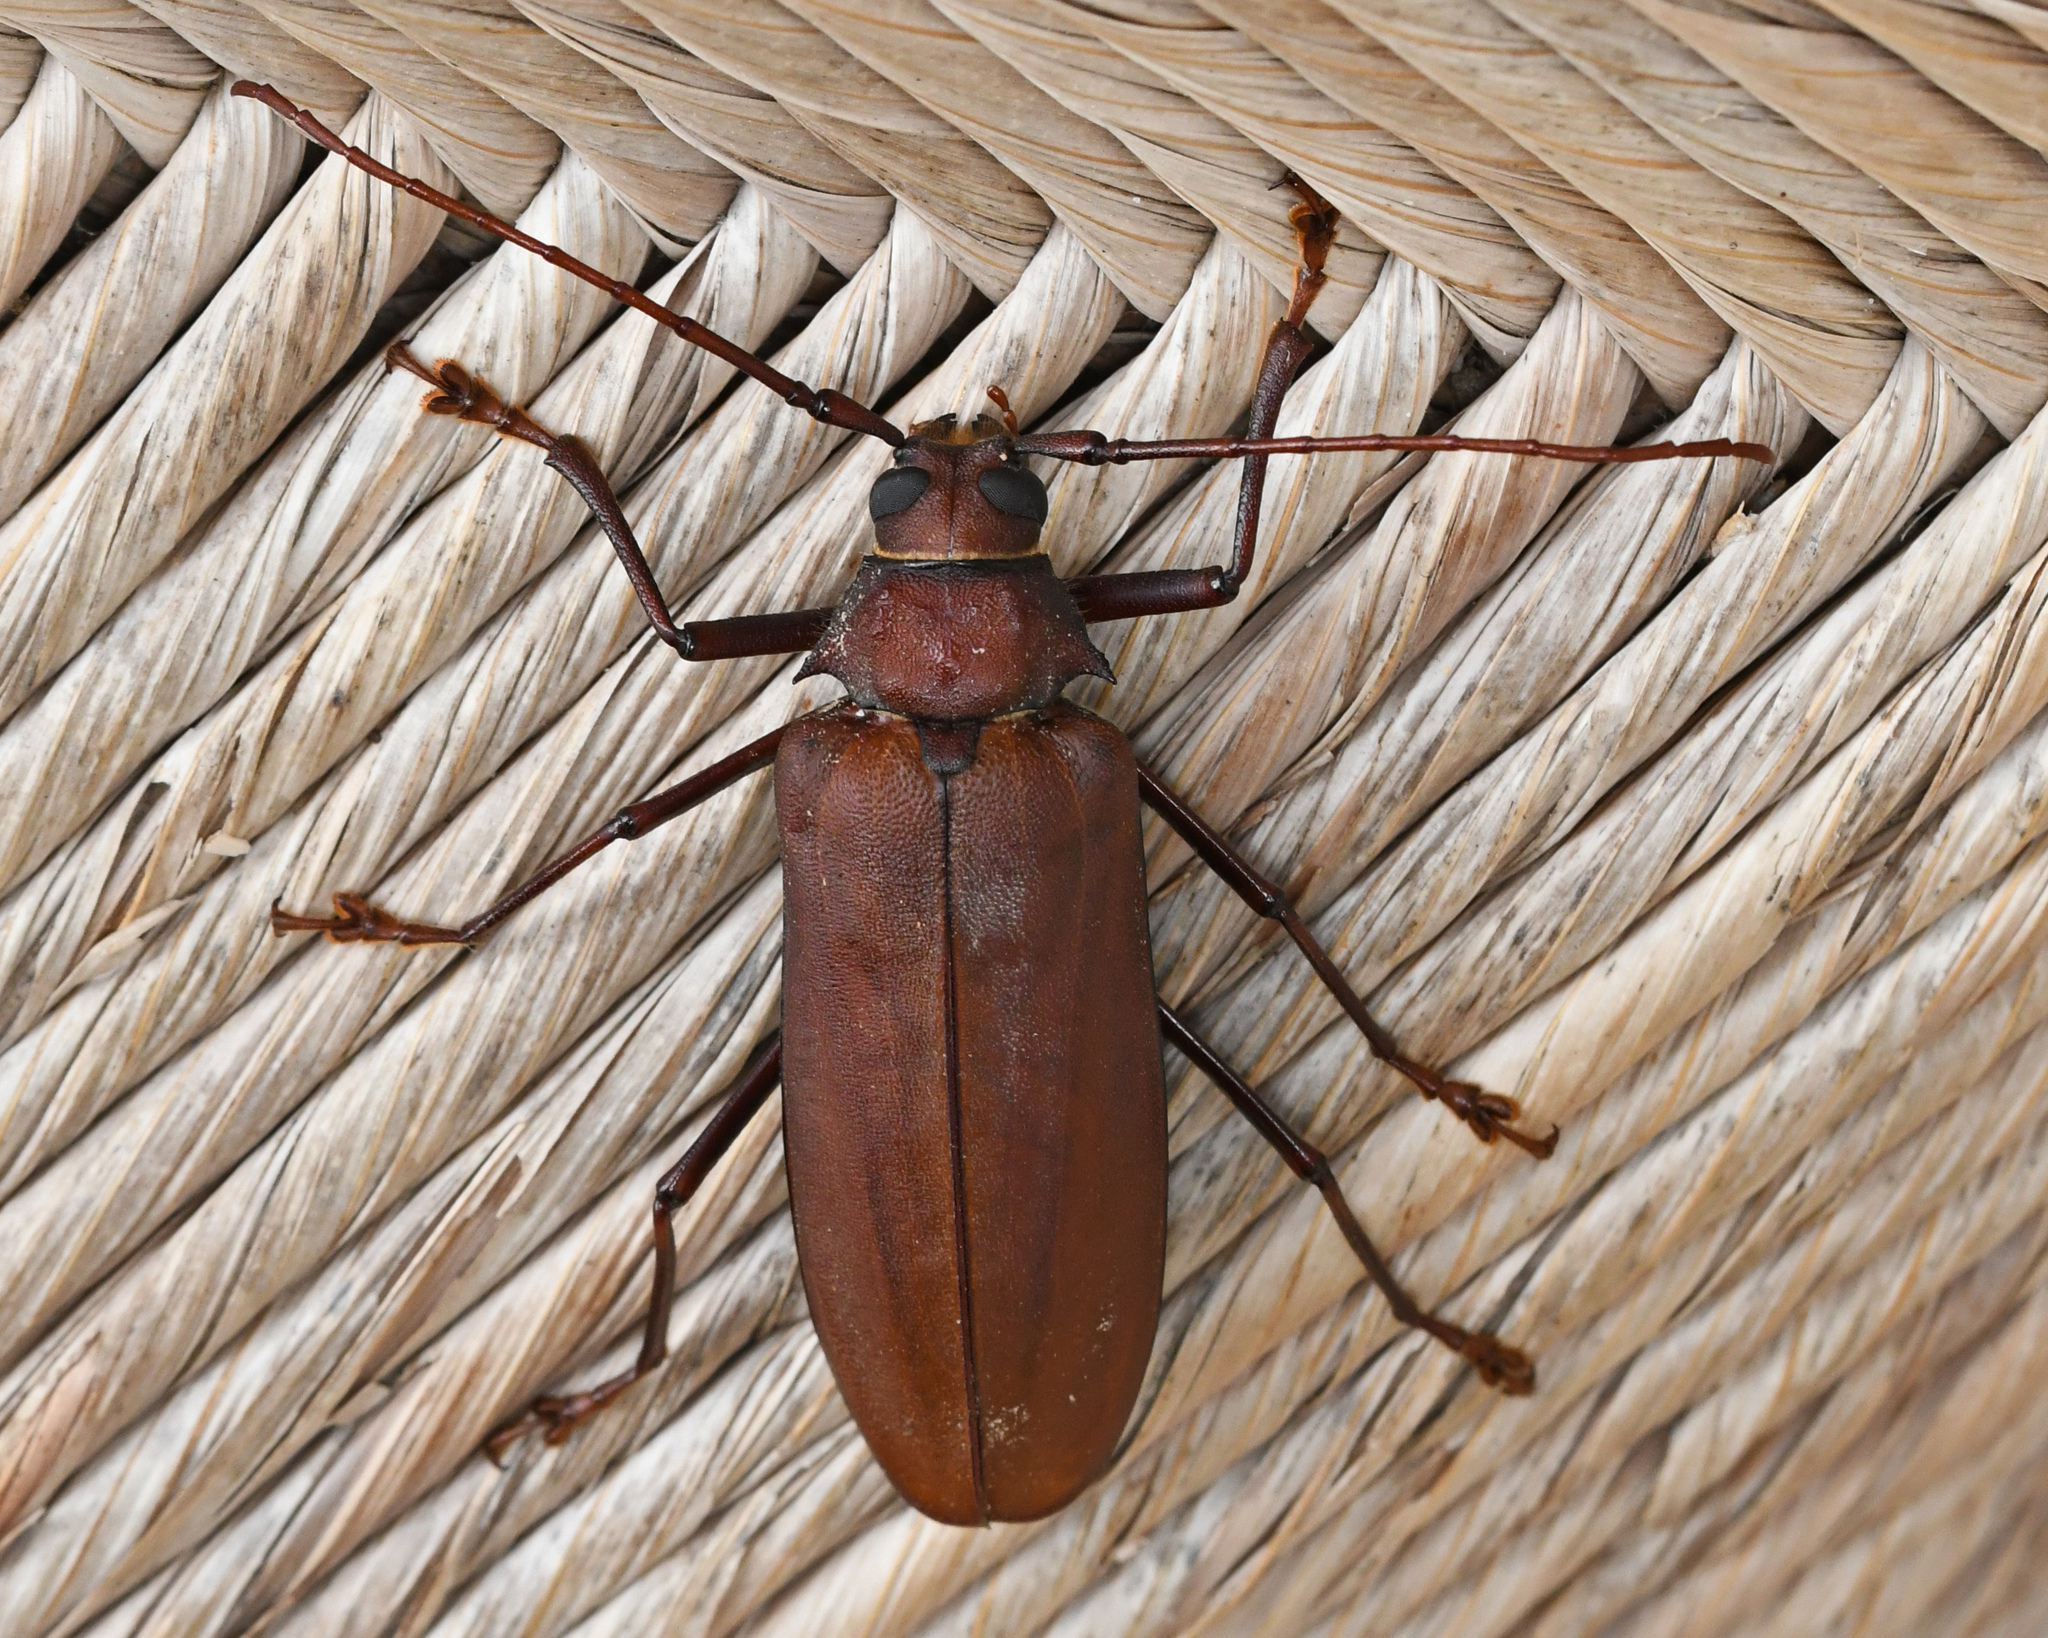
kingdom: Animalia
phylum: Arthropoda
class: Insecta
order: Coleoptera
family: Cerambycidae
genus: Strongylaspis
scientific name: Strongylaspis corticaria
